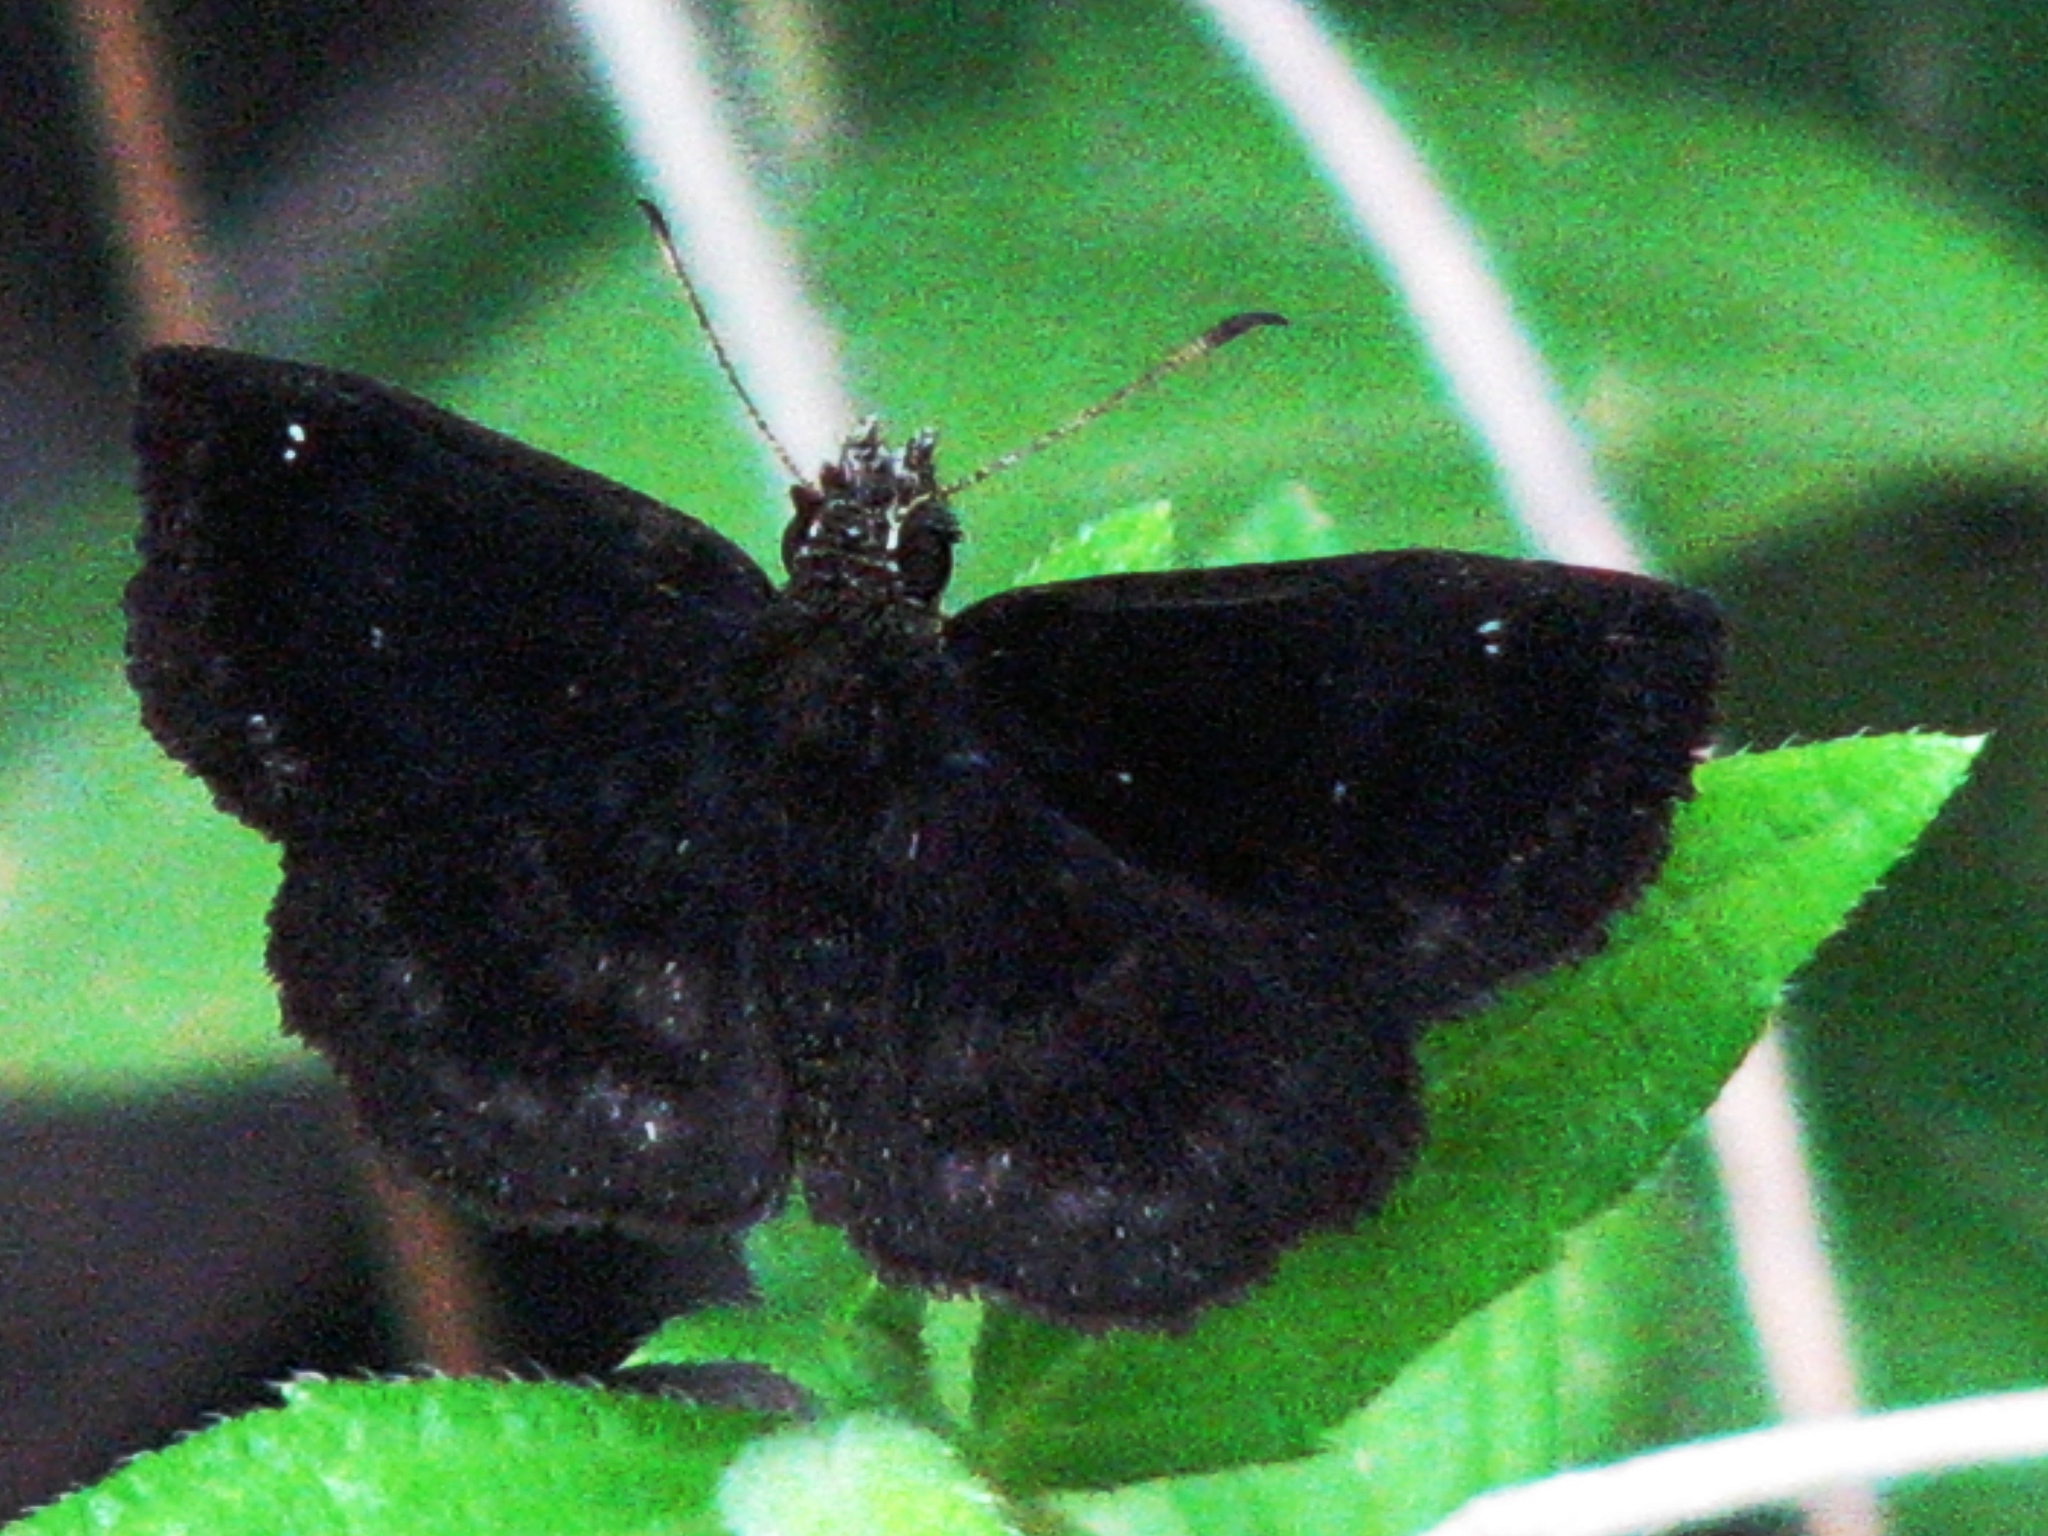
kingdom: Animalia
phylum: Arthropoda
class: Insecta
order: Lepidoptera
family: Hesperiidae
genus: Staphylus
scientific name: Staphylus mazans
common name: Mazans scallopwing
